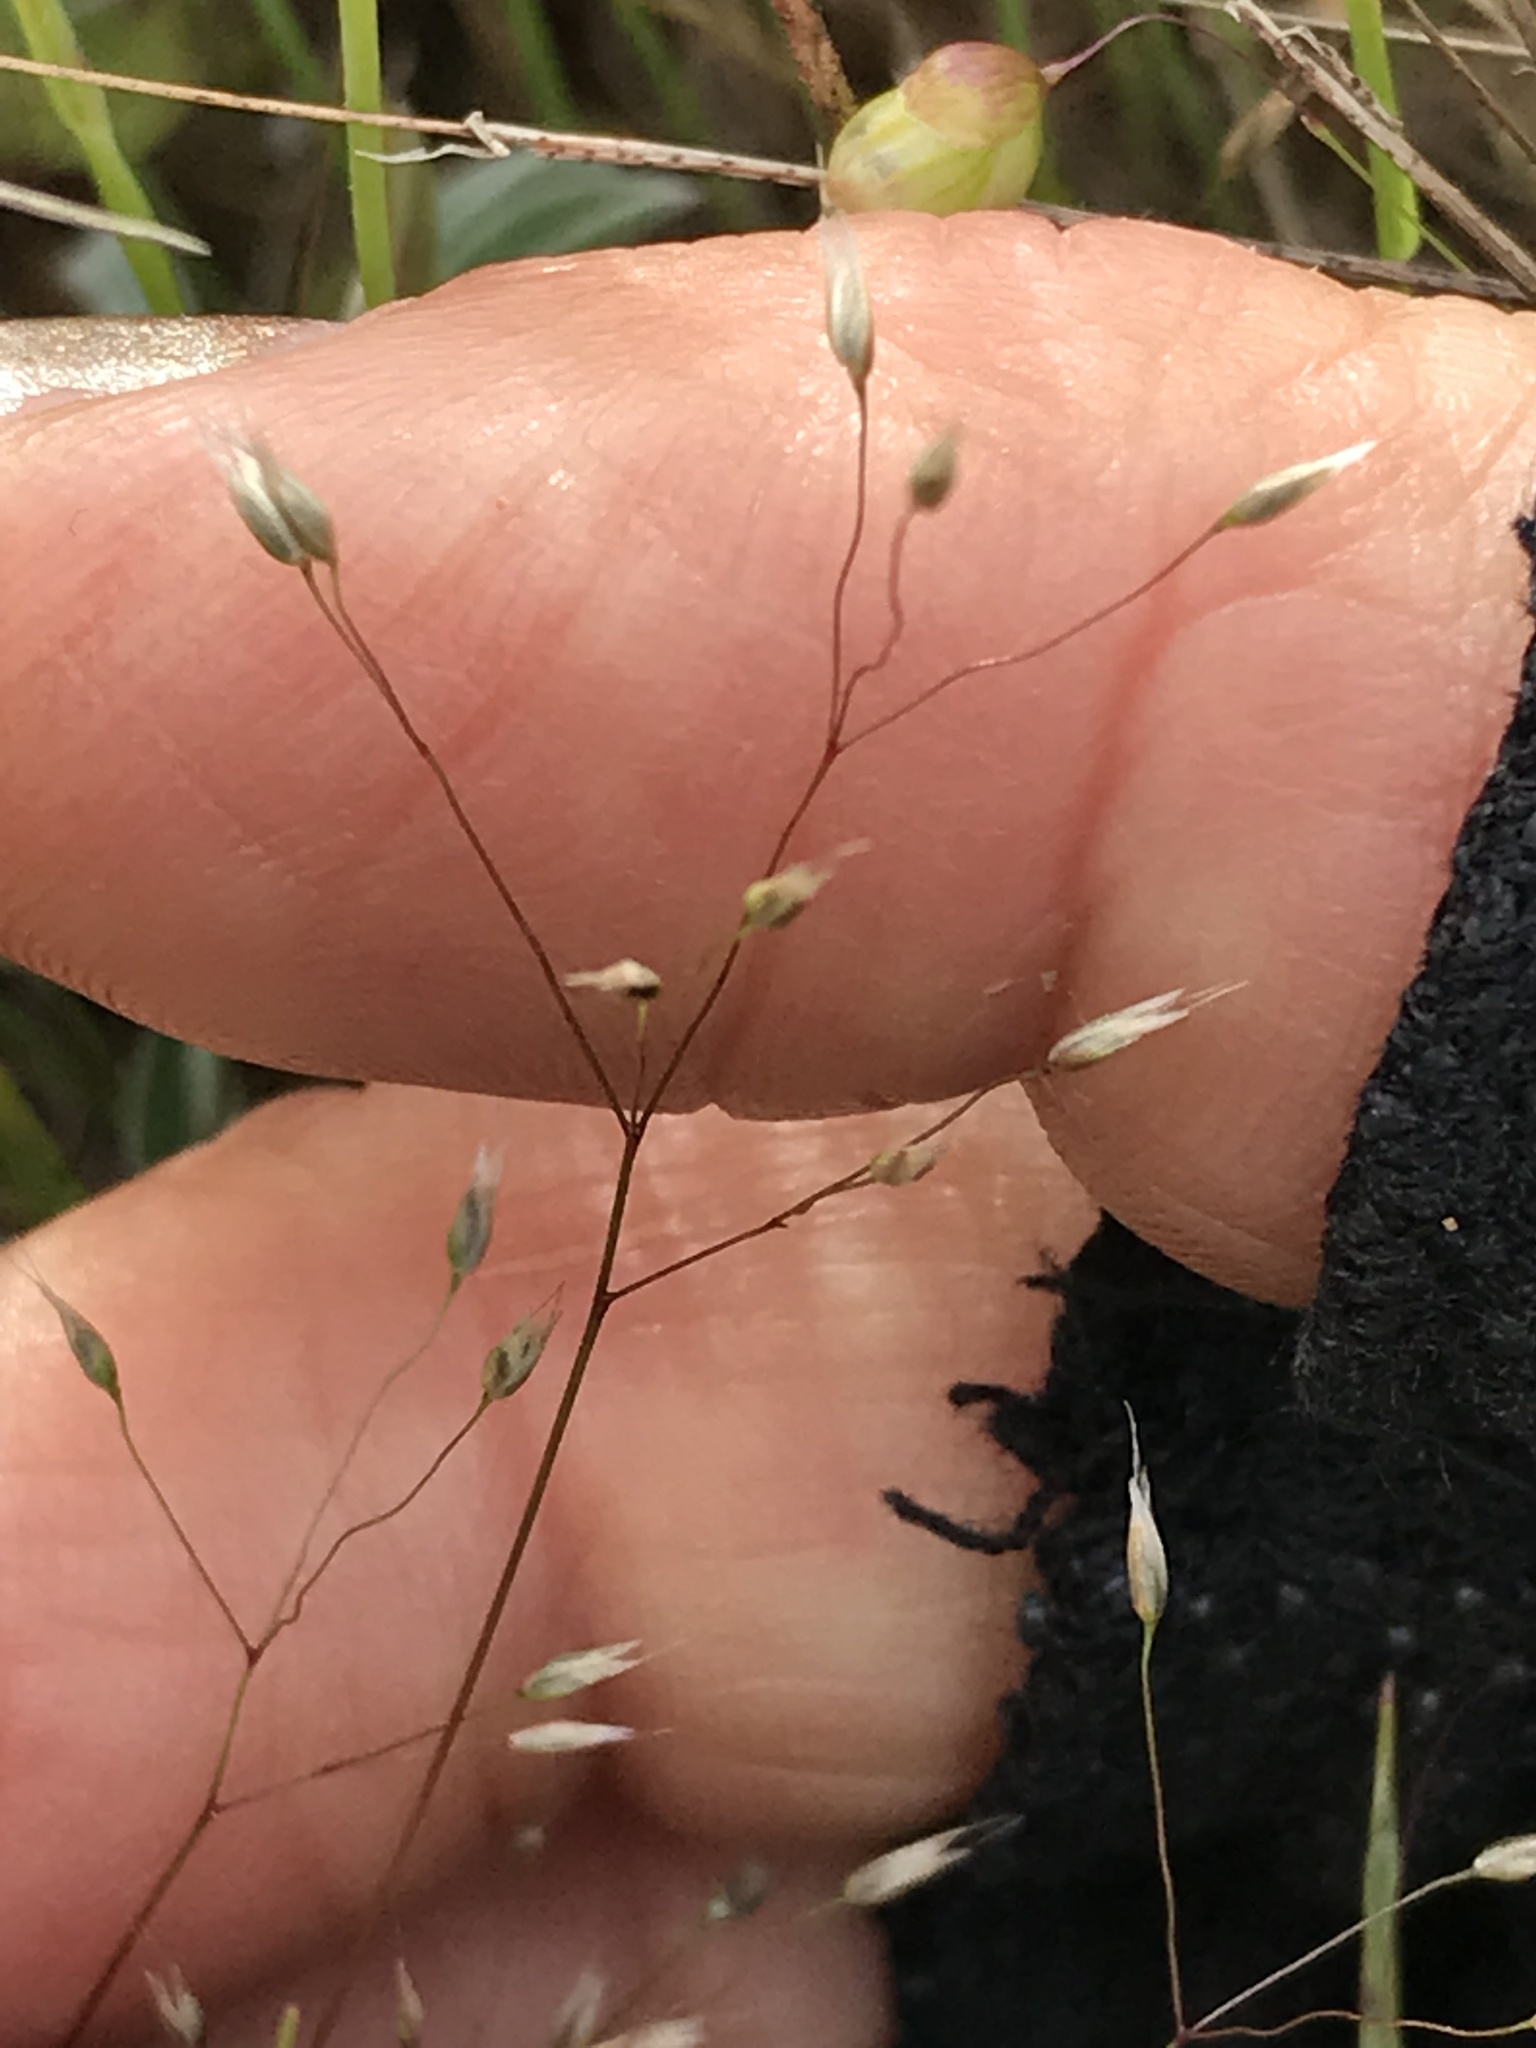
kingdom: Plantae
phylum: Tracheophyta
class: Liliopsida
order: Poales
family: Poaceae
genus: Aira
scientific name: Aira caryophyllea
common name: Silver hairgrass
